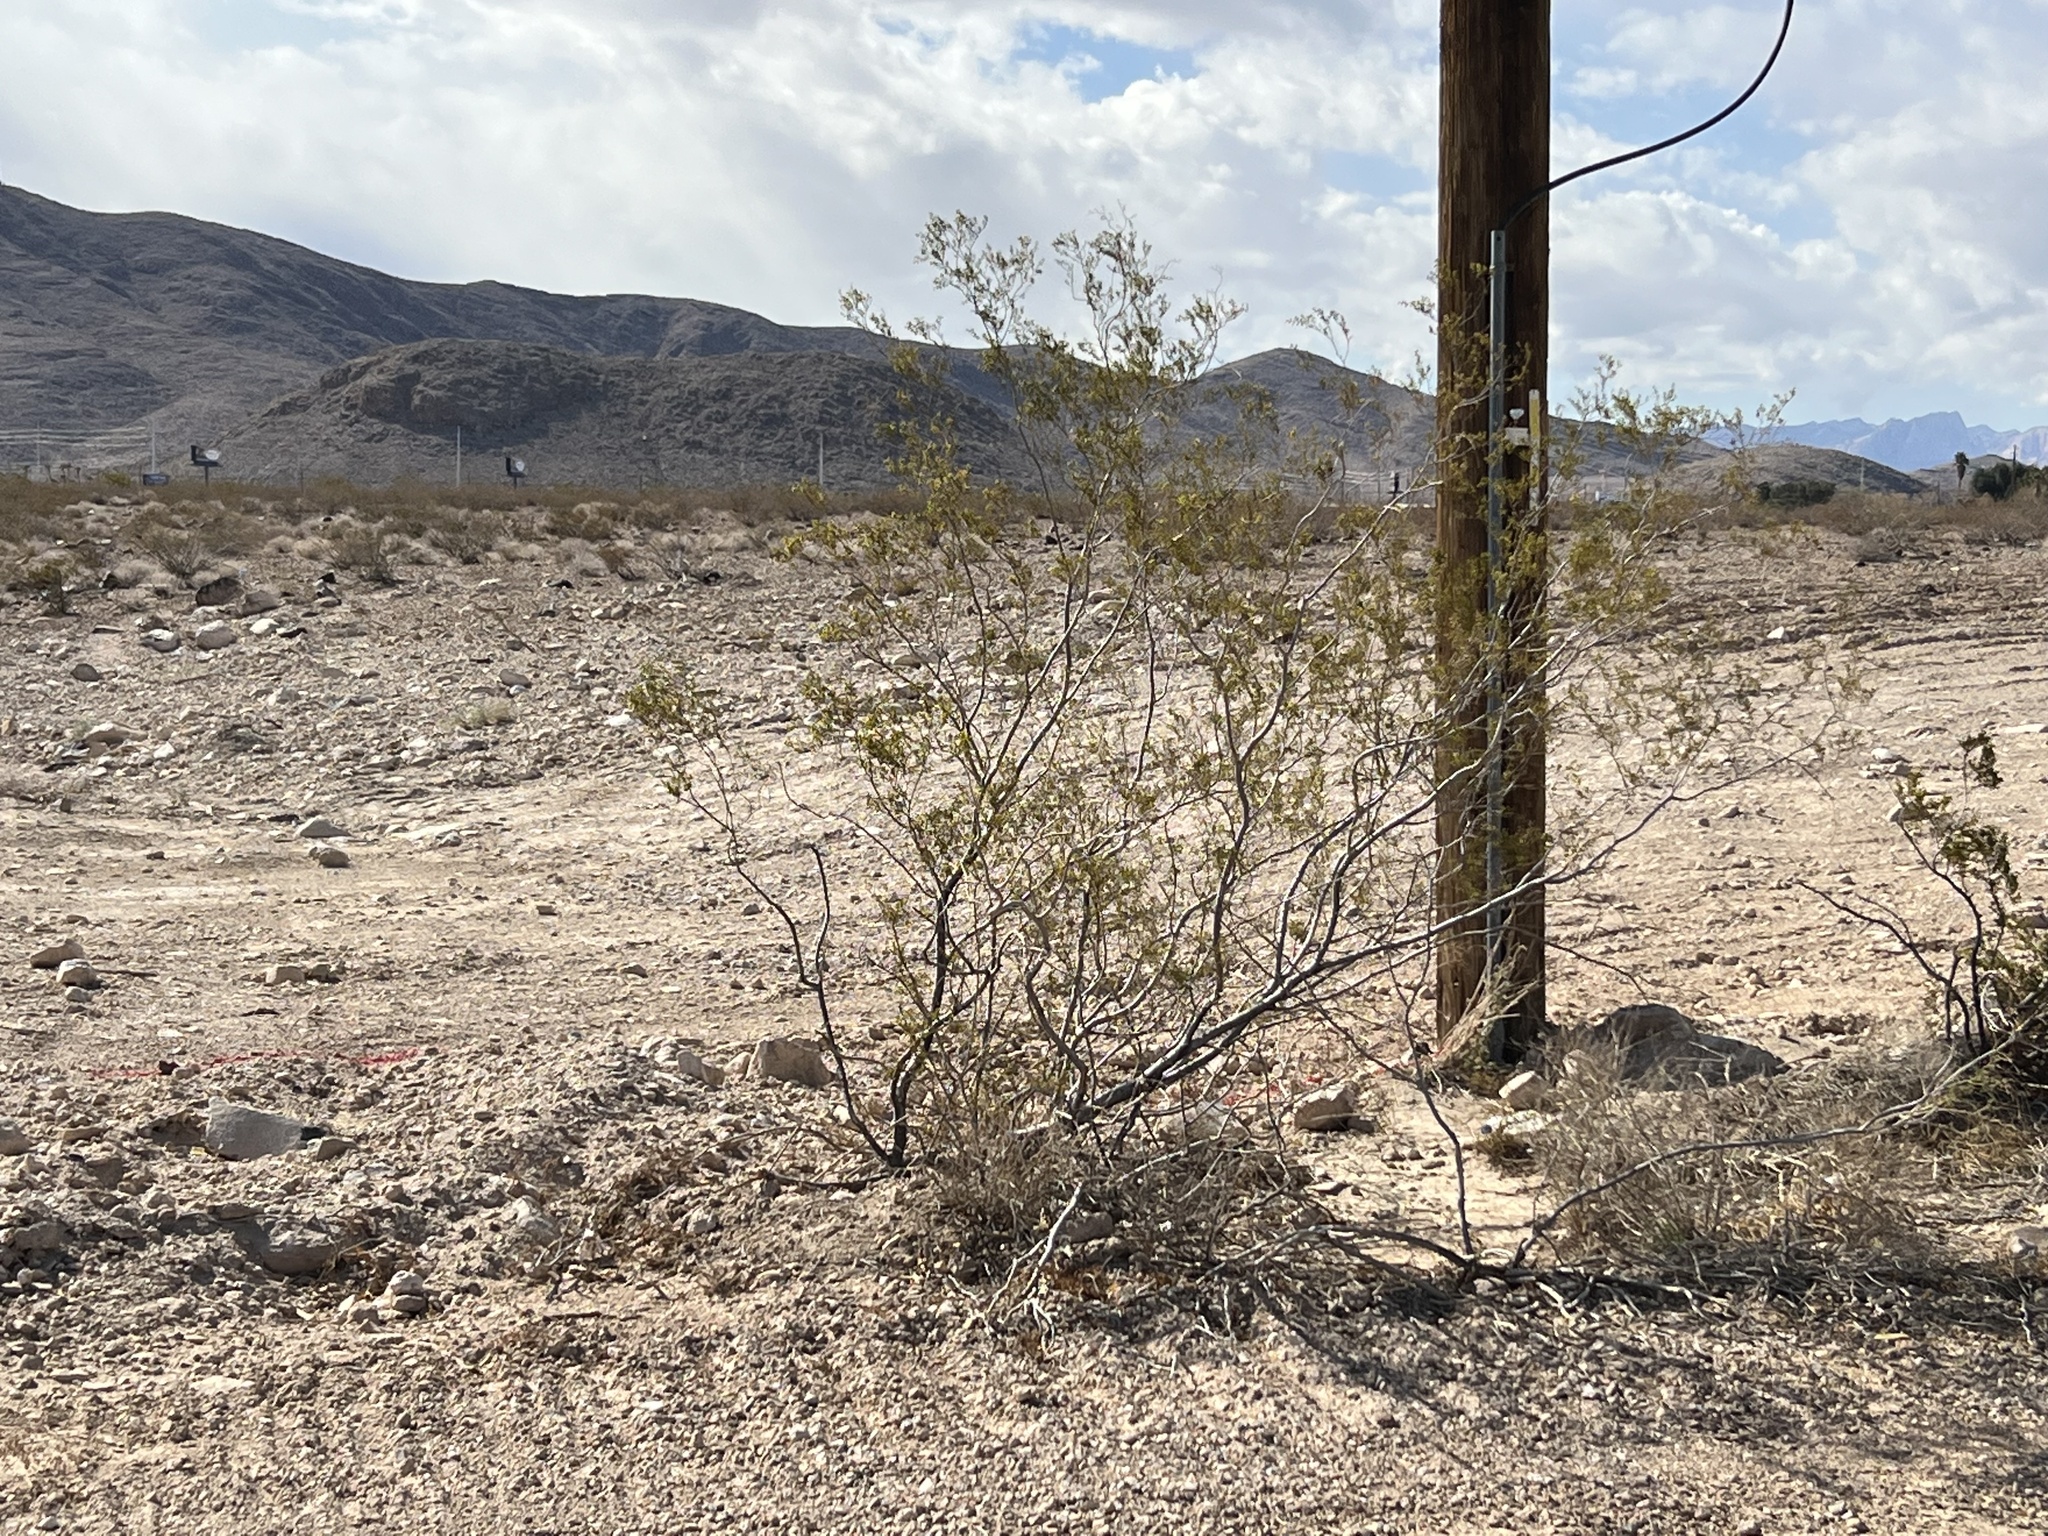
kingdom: Plantae
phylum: Tracheophyta
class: Magnoliopsida
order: Zygophyllales
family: Zygophyllaceae
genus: Larrea
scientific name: Larrea tridentata
